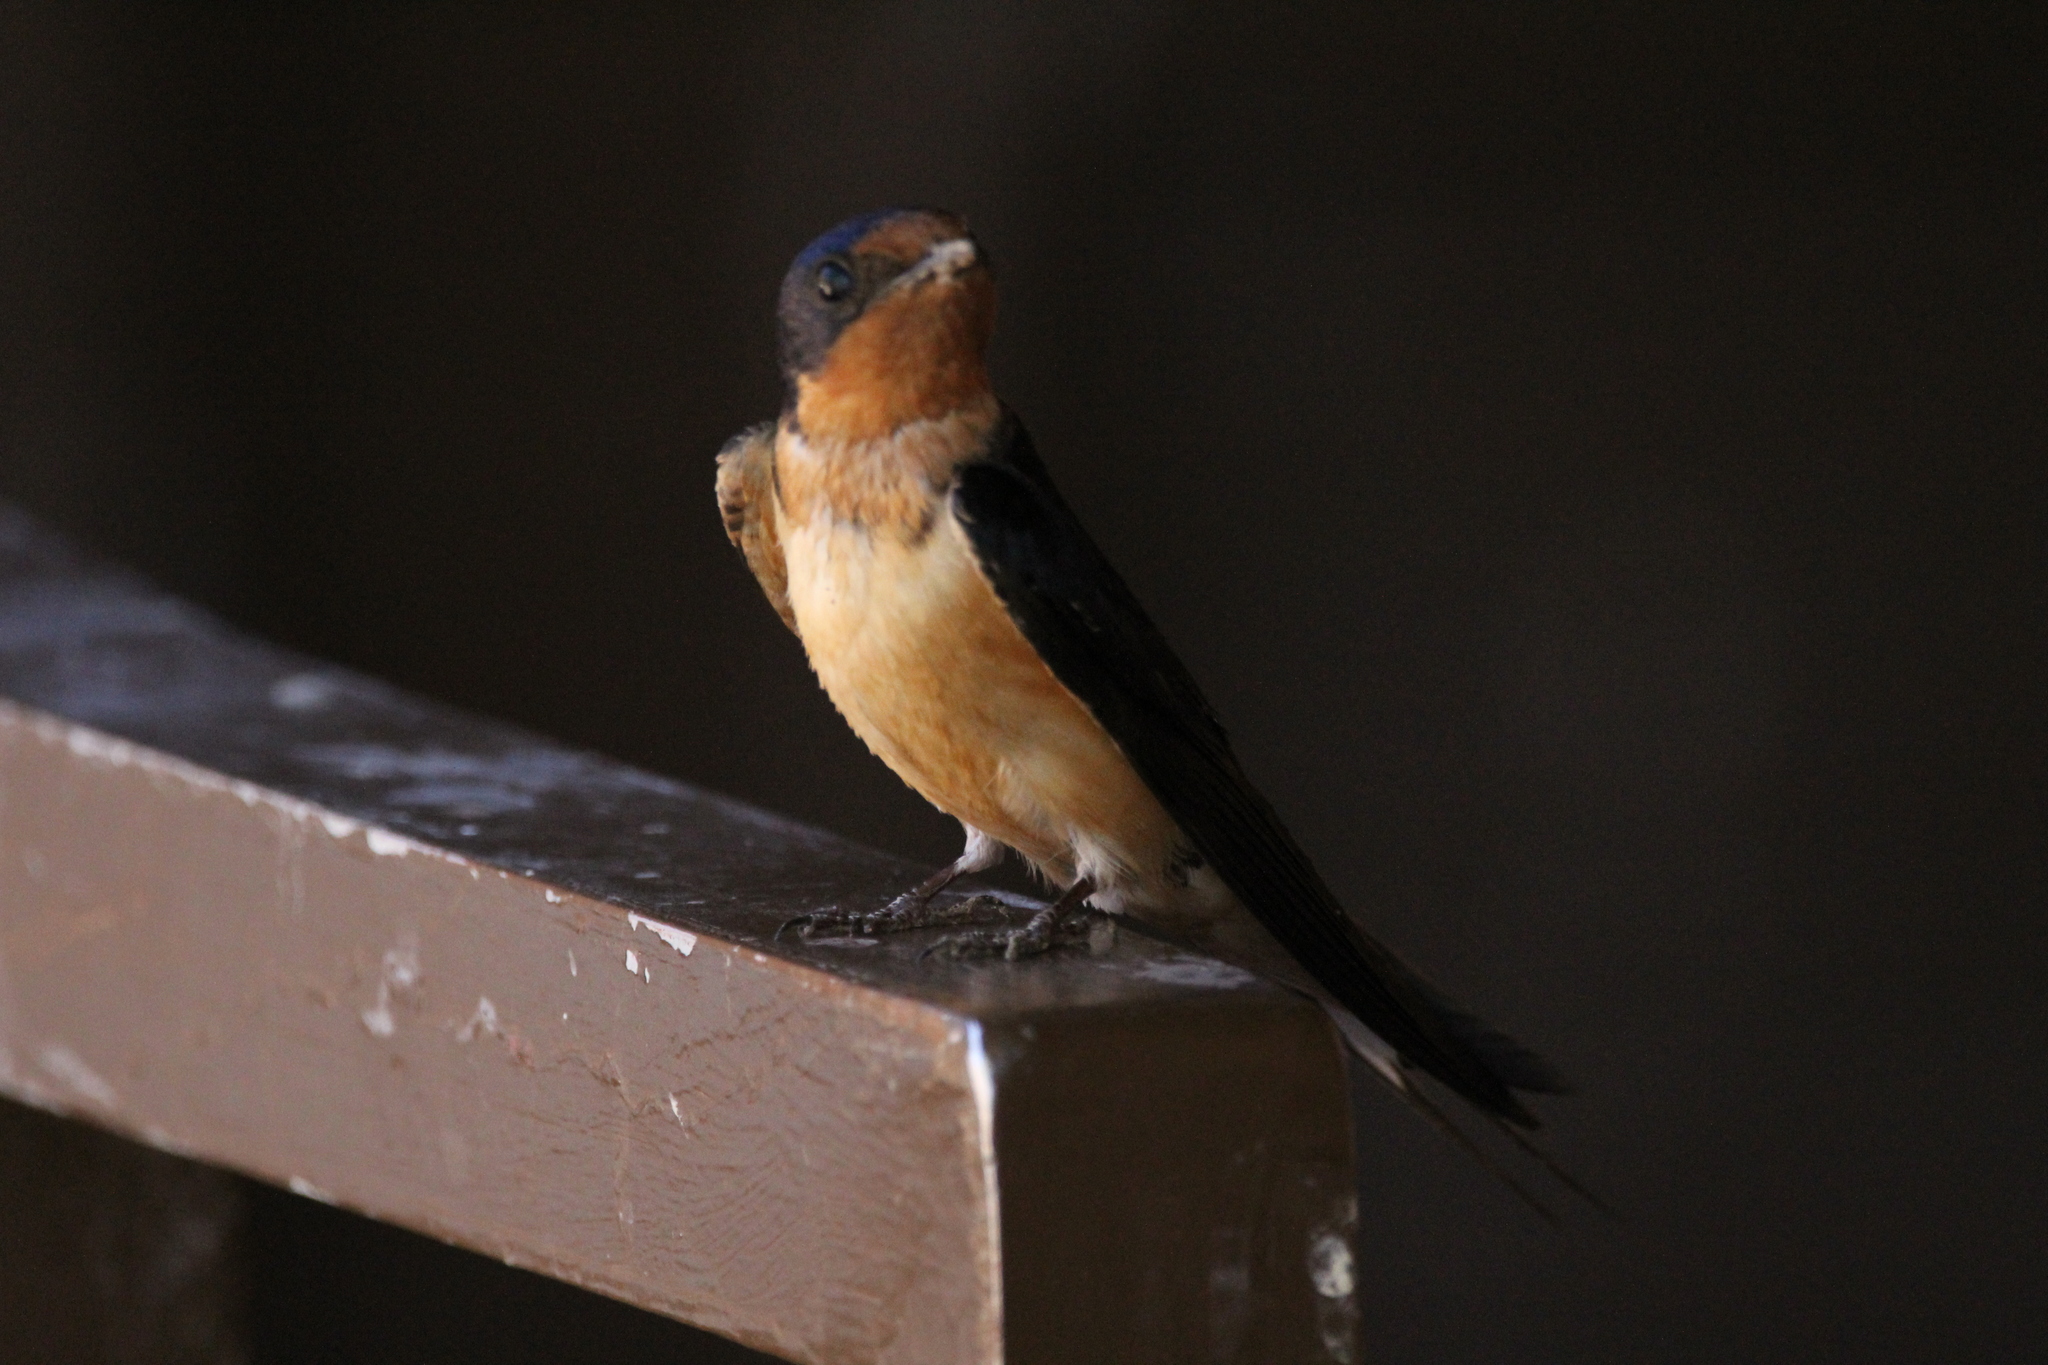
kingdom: Animalia
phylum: Chordata
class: Aves
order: Passeriformes
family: Hirundinidae
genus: Hirundo
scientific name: Hirundo rustica
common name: Barn swallow
